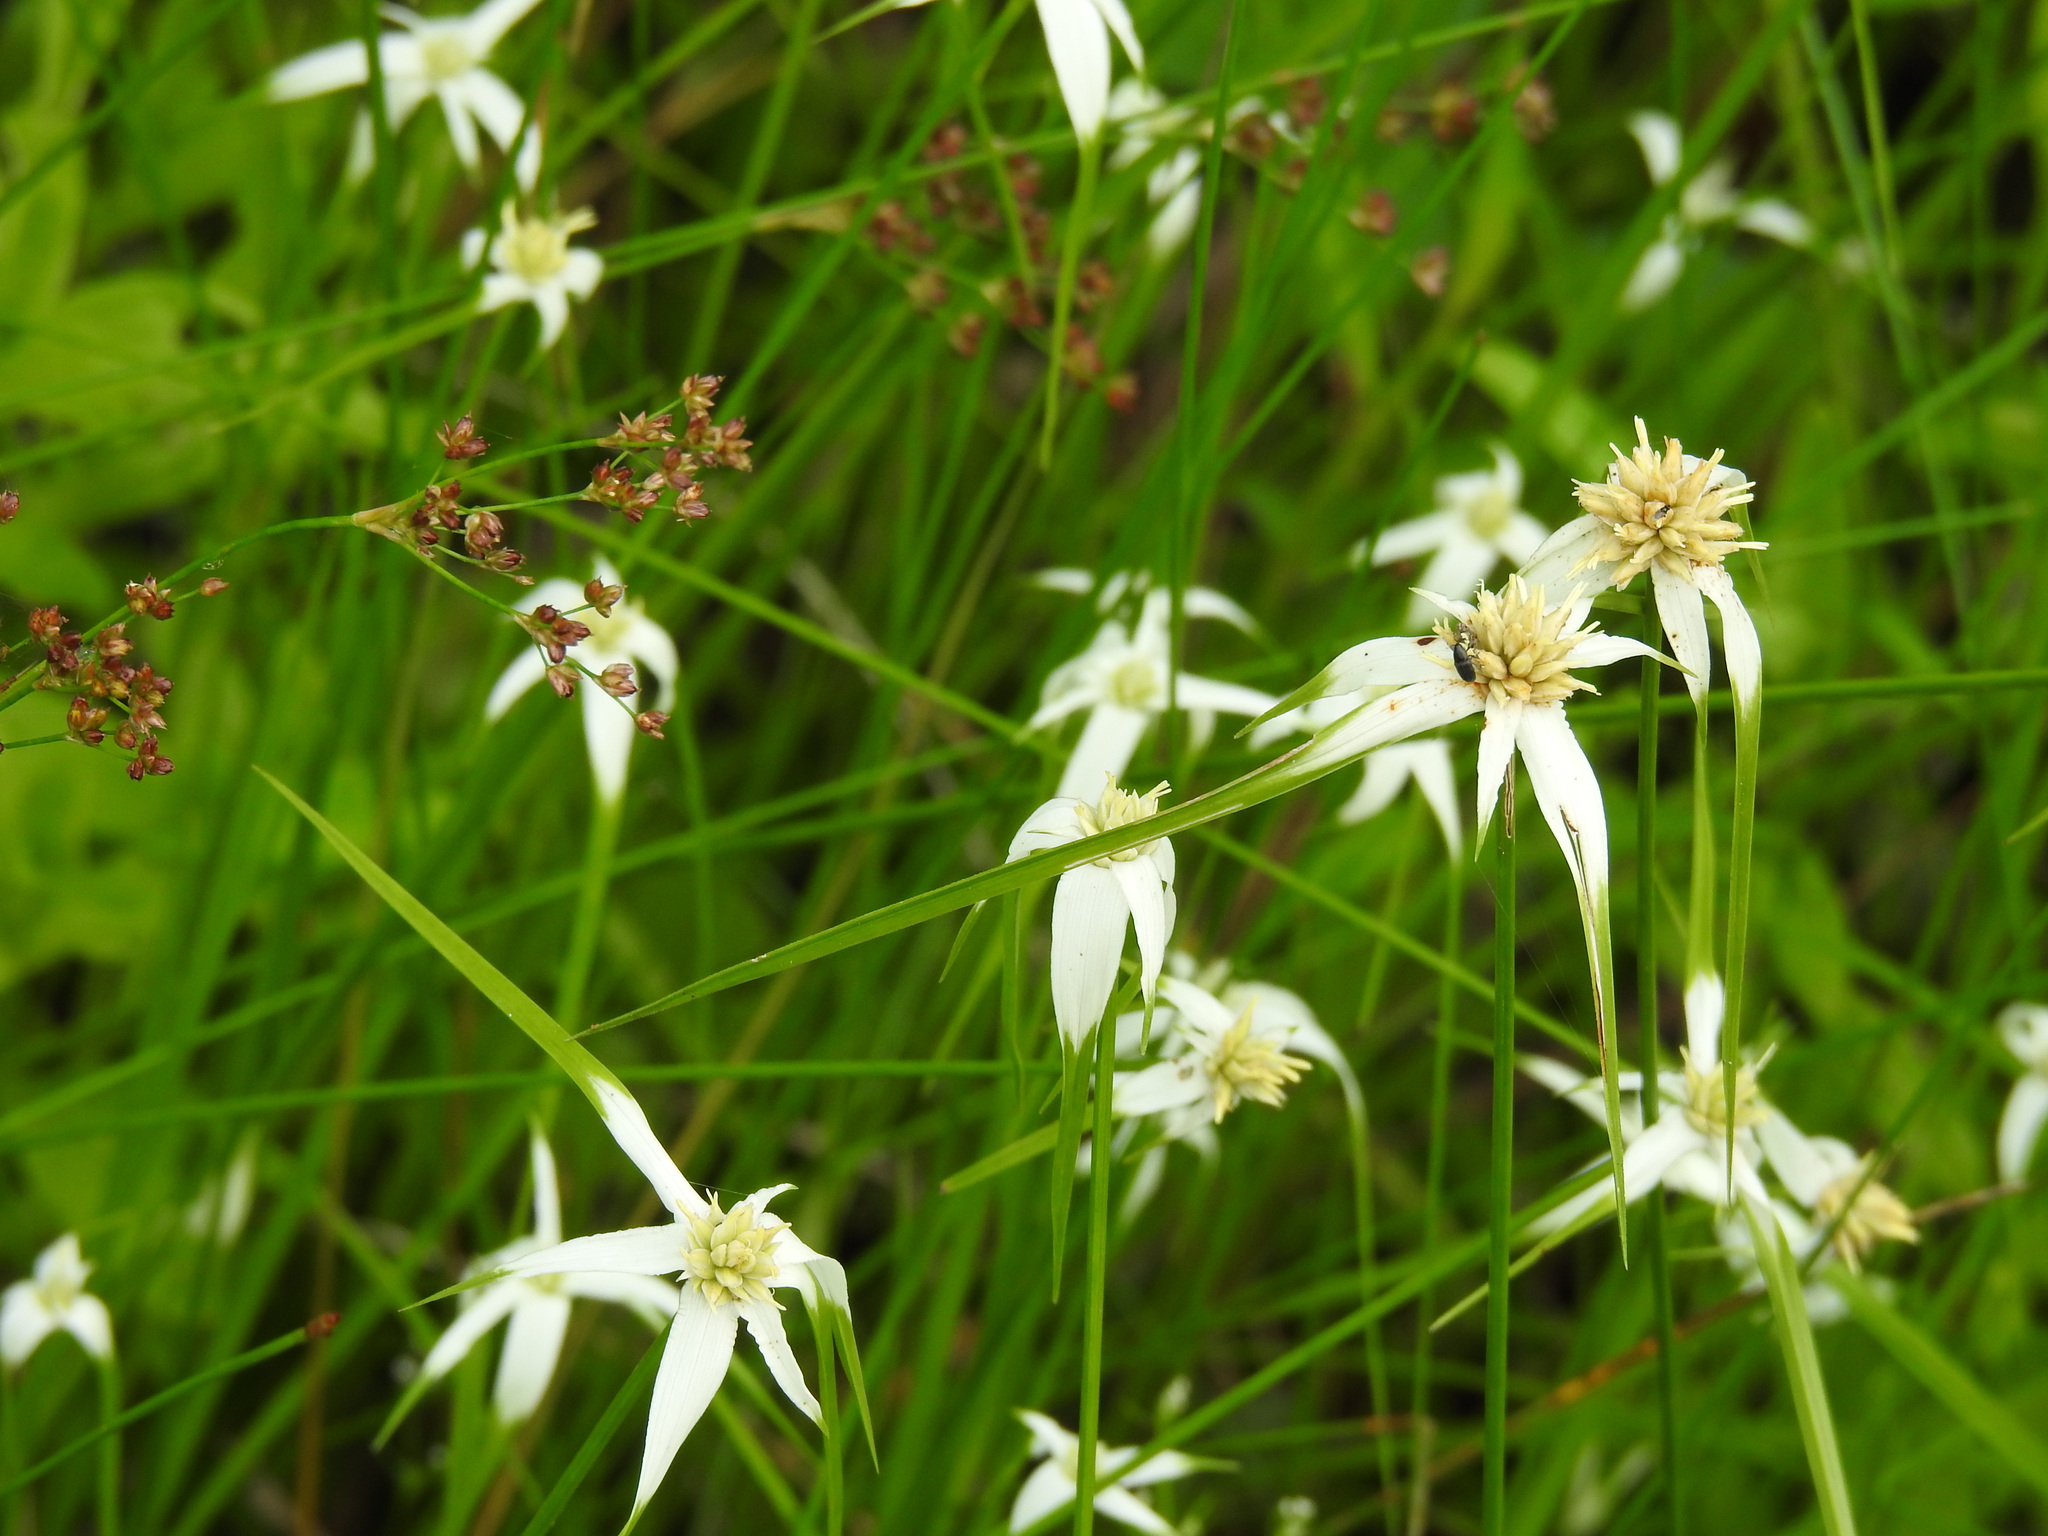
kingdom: Plantae
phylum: Tracheophyta
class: Liliopsida
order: Poales
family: Cyperaceae
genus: Rhynchospora
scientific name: Rhynchospora colorata
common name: Star sedge
